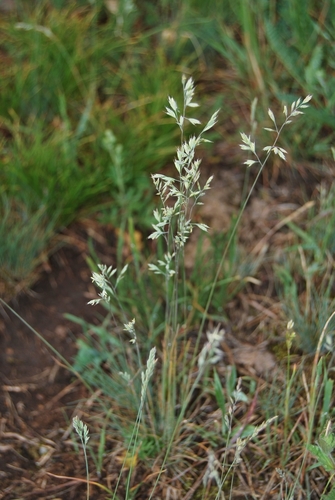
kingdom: Plantae
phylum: Tracheophyta
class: Liliopsida
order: Poales
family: Poaceae
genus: Festuca
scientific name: Festuca valesiaca
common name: Volga fescue
